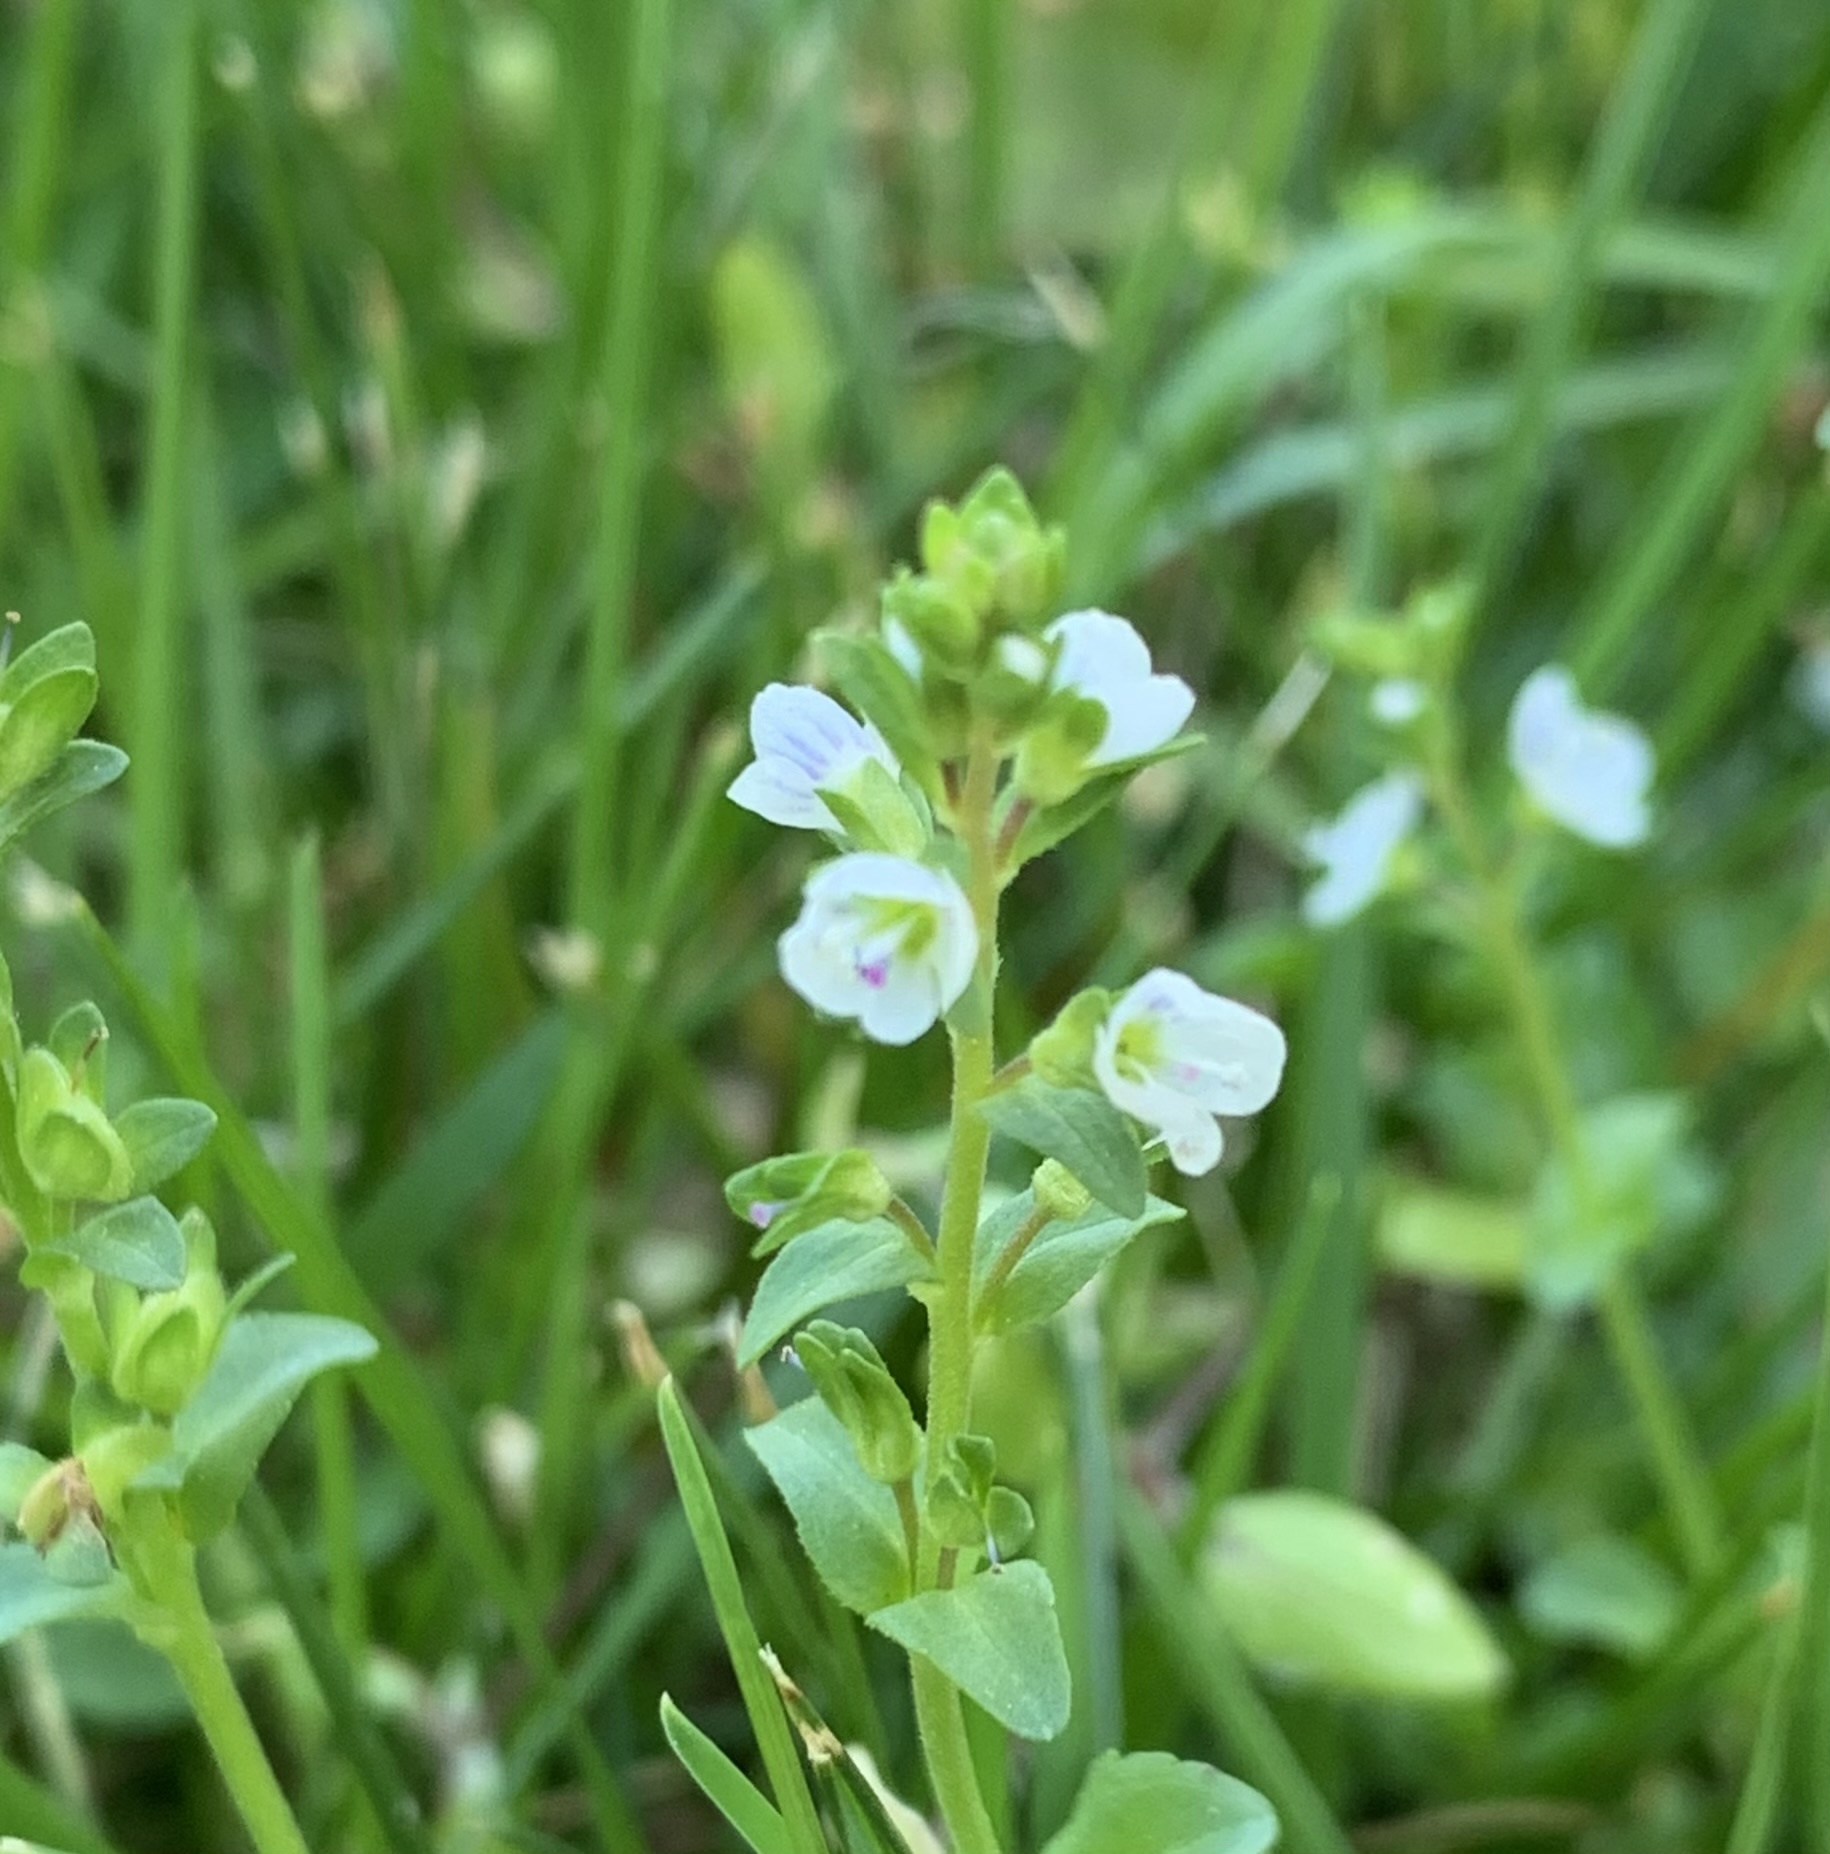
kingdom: Plantae
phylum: Tracheophyta
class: Magnoliopsida
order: Lamiales
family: Plantaginaceae
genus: Veronica
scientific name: Veronica serpyllifolia
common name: Thyme-leaved speedwell
